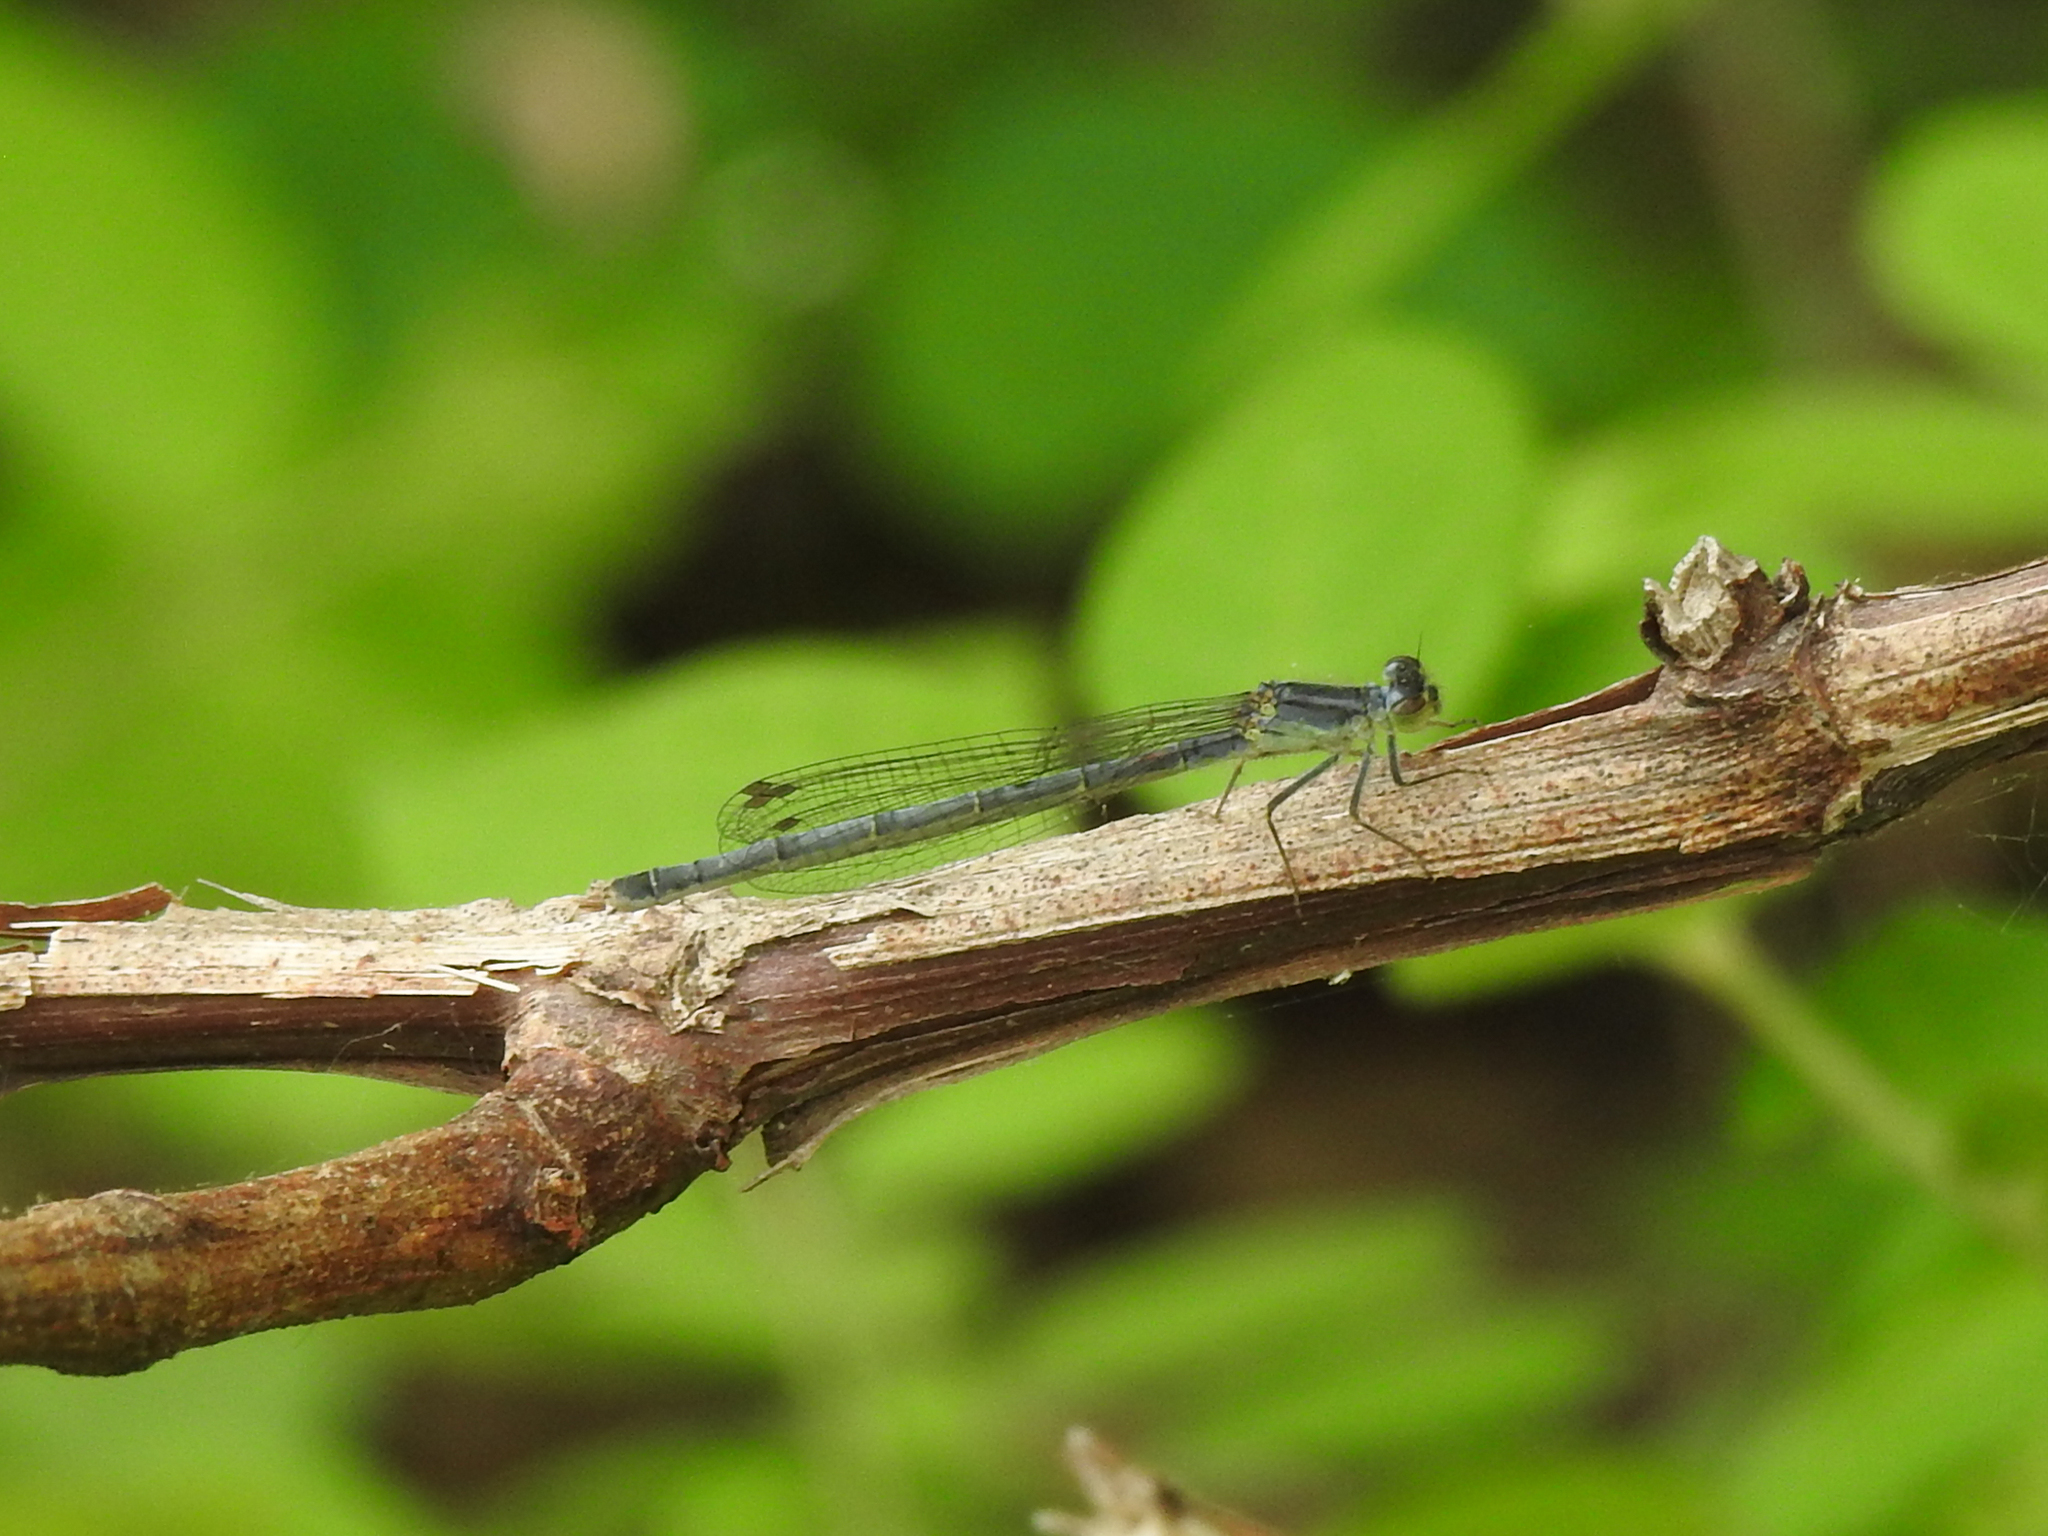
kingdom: Animalia
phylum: Arthropoda
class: Insecta
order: Odonata
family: Coenagrionidae
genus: Ischnura
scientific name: Ischnura verticalis
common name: Eastern forktail
